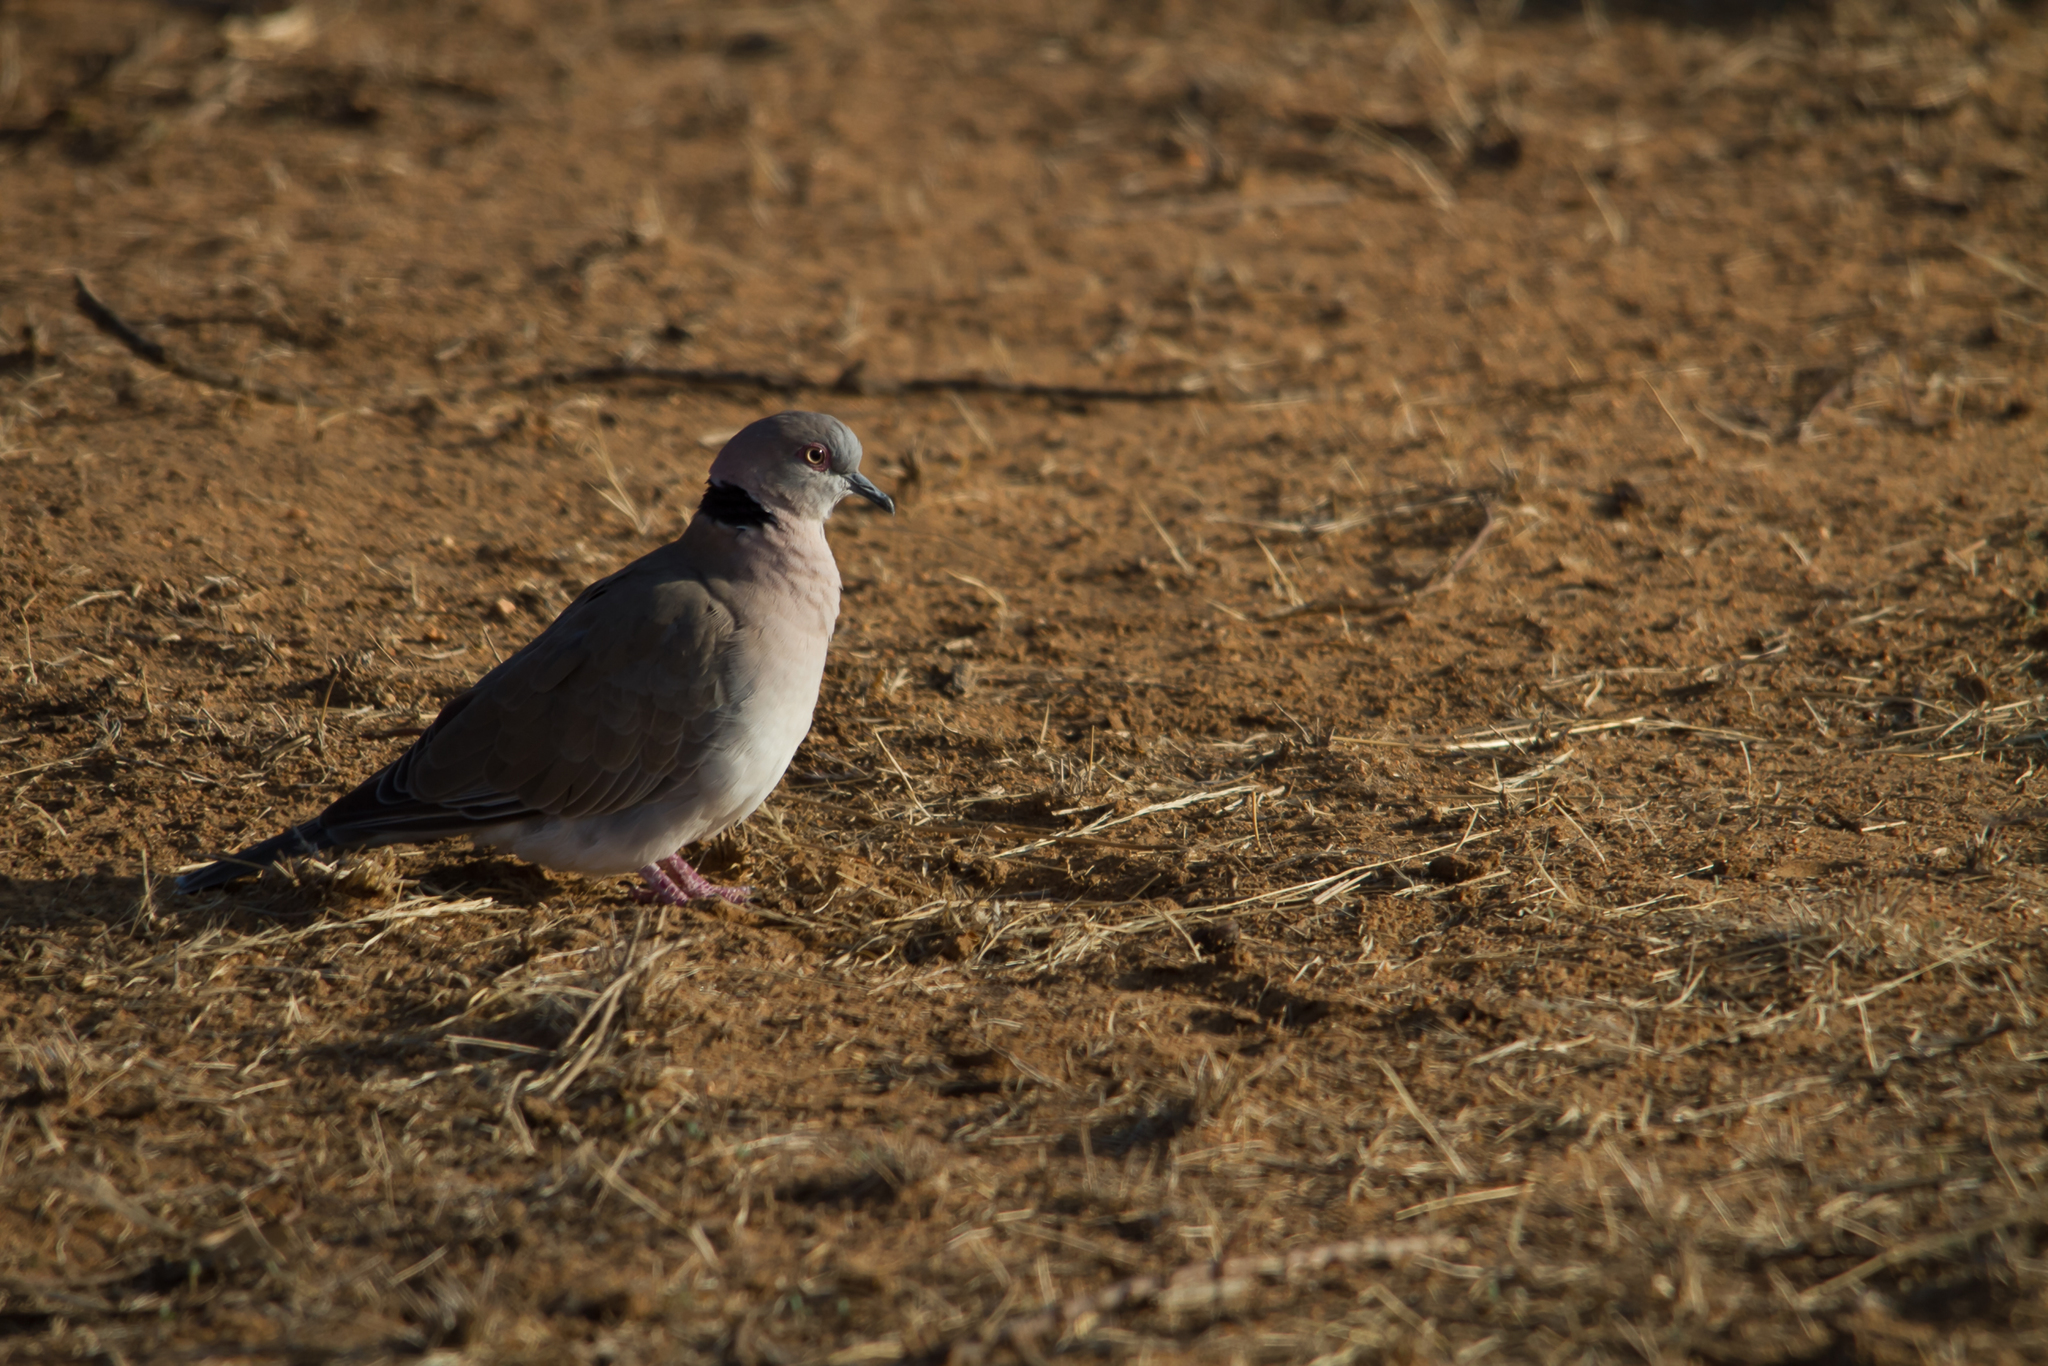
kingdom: Animalia
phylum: Chordata
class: Aves
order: Columbiformes
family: Columbidae
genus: Streptopelia
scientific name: Streptopelia decipiens
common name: Mourning collared dove
